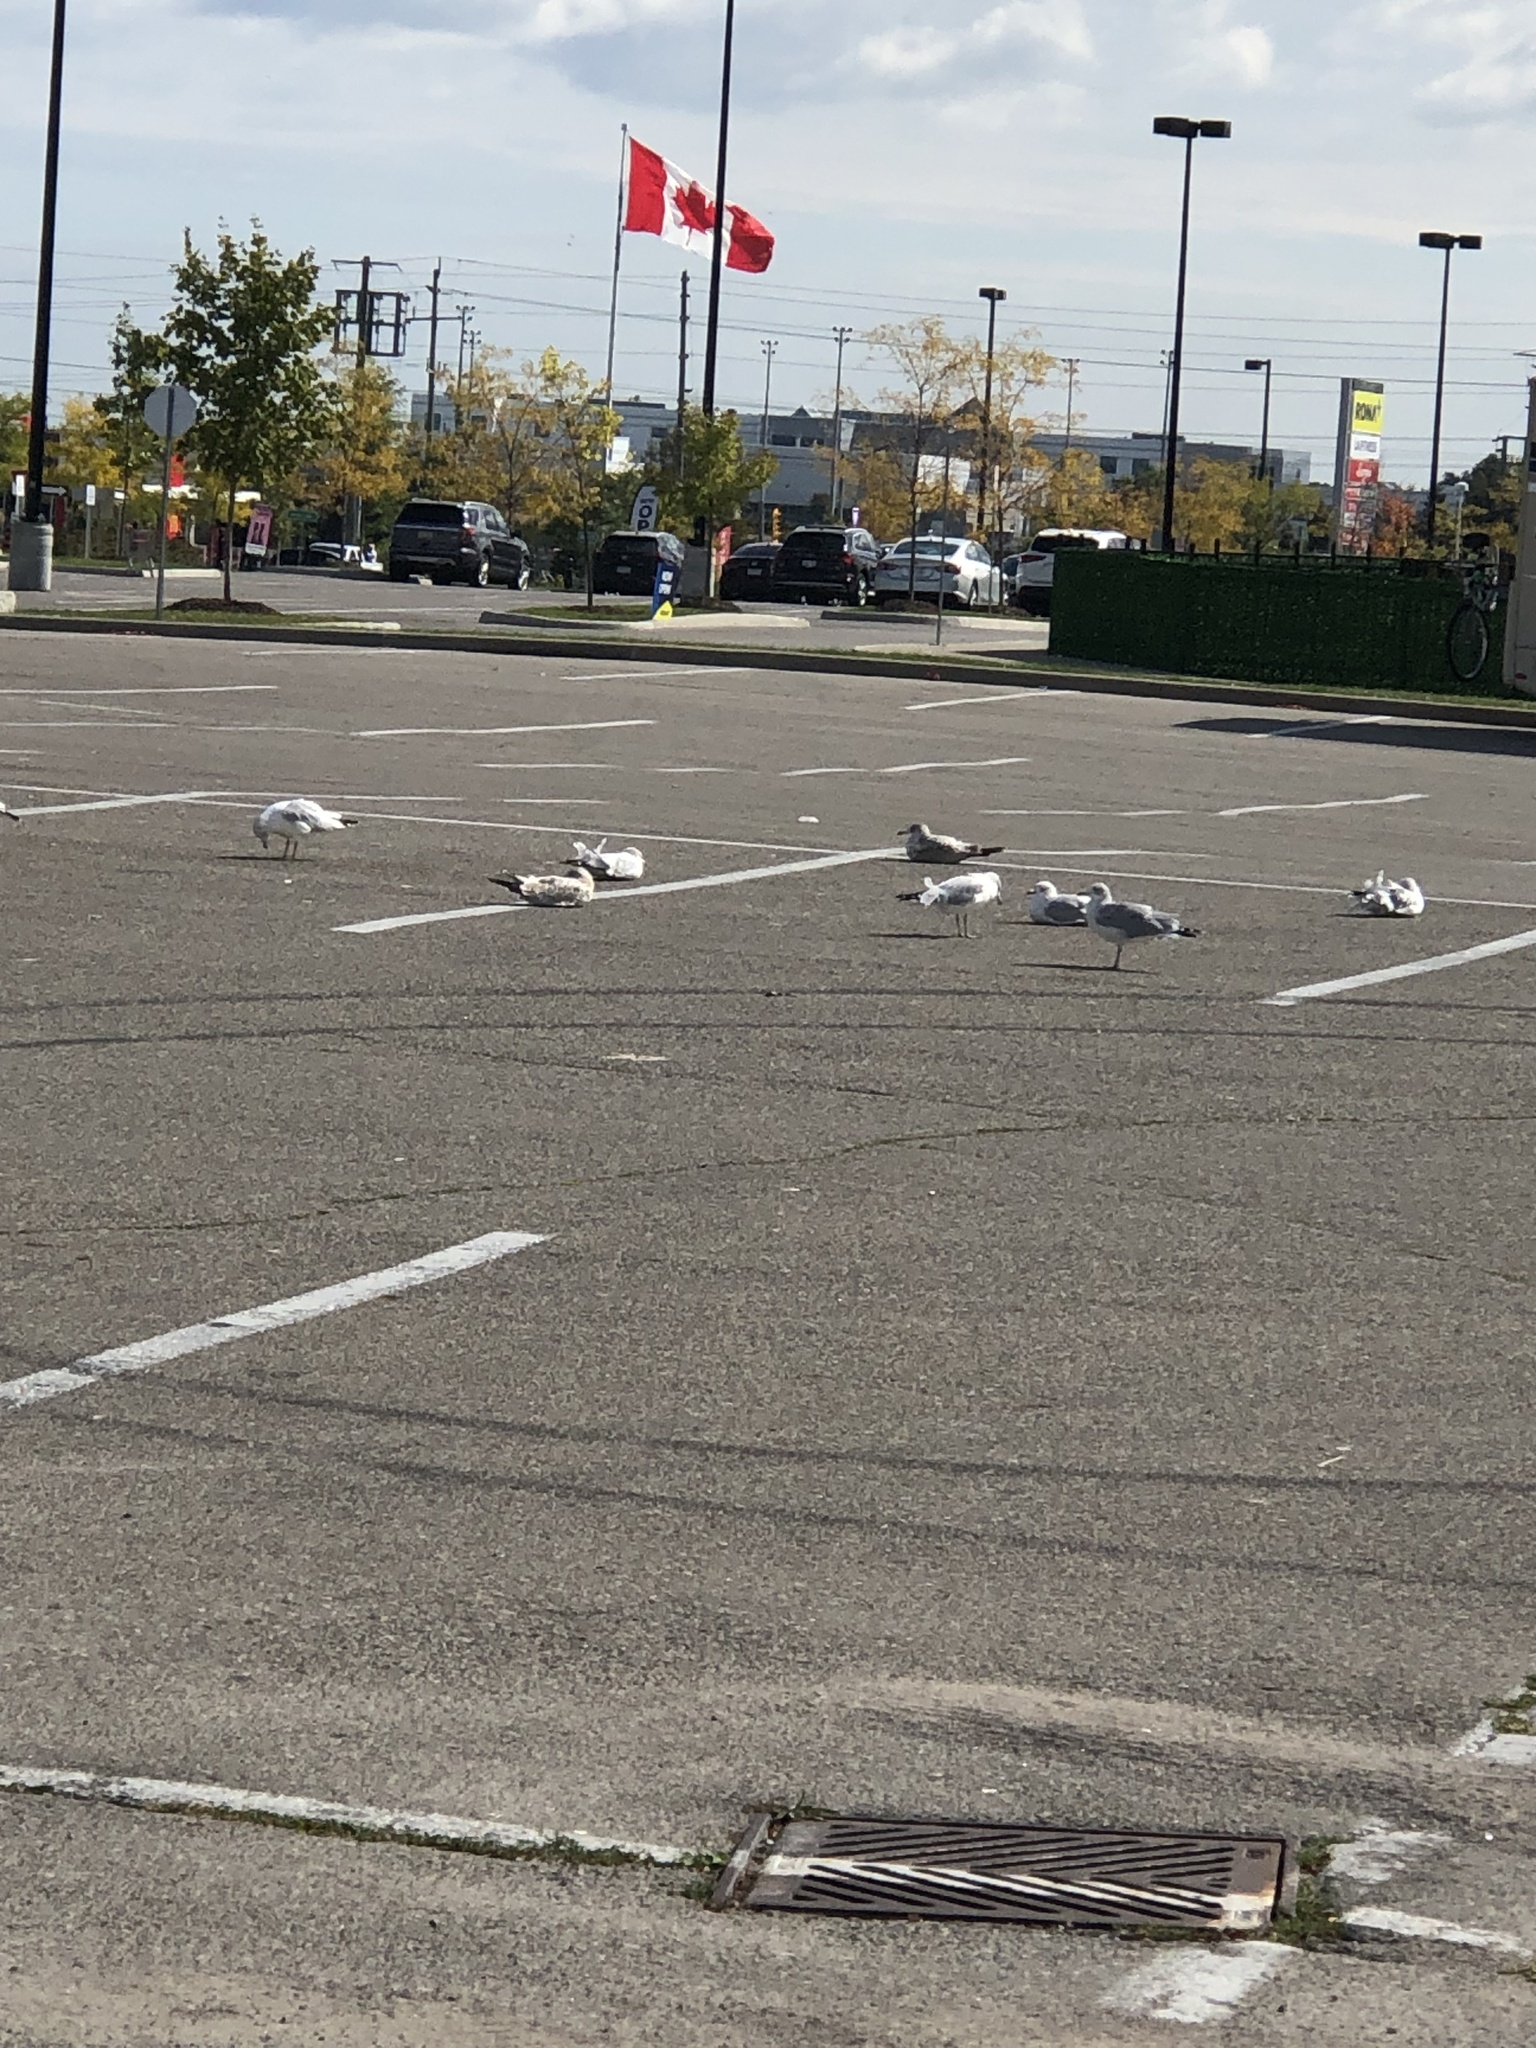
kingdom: Animalia
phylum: Chordata
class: Aves
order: Charadriiformes
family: Laridae
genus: Larus
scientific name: Larus delawarensis
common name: Ring-billed gull
